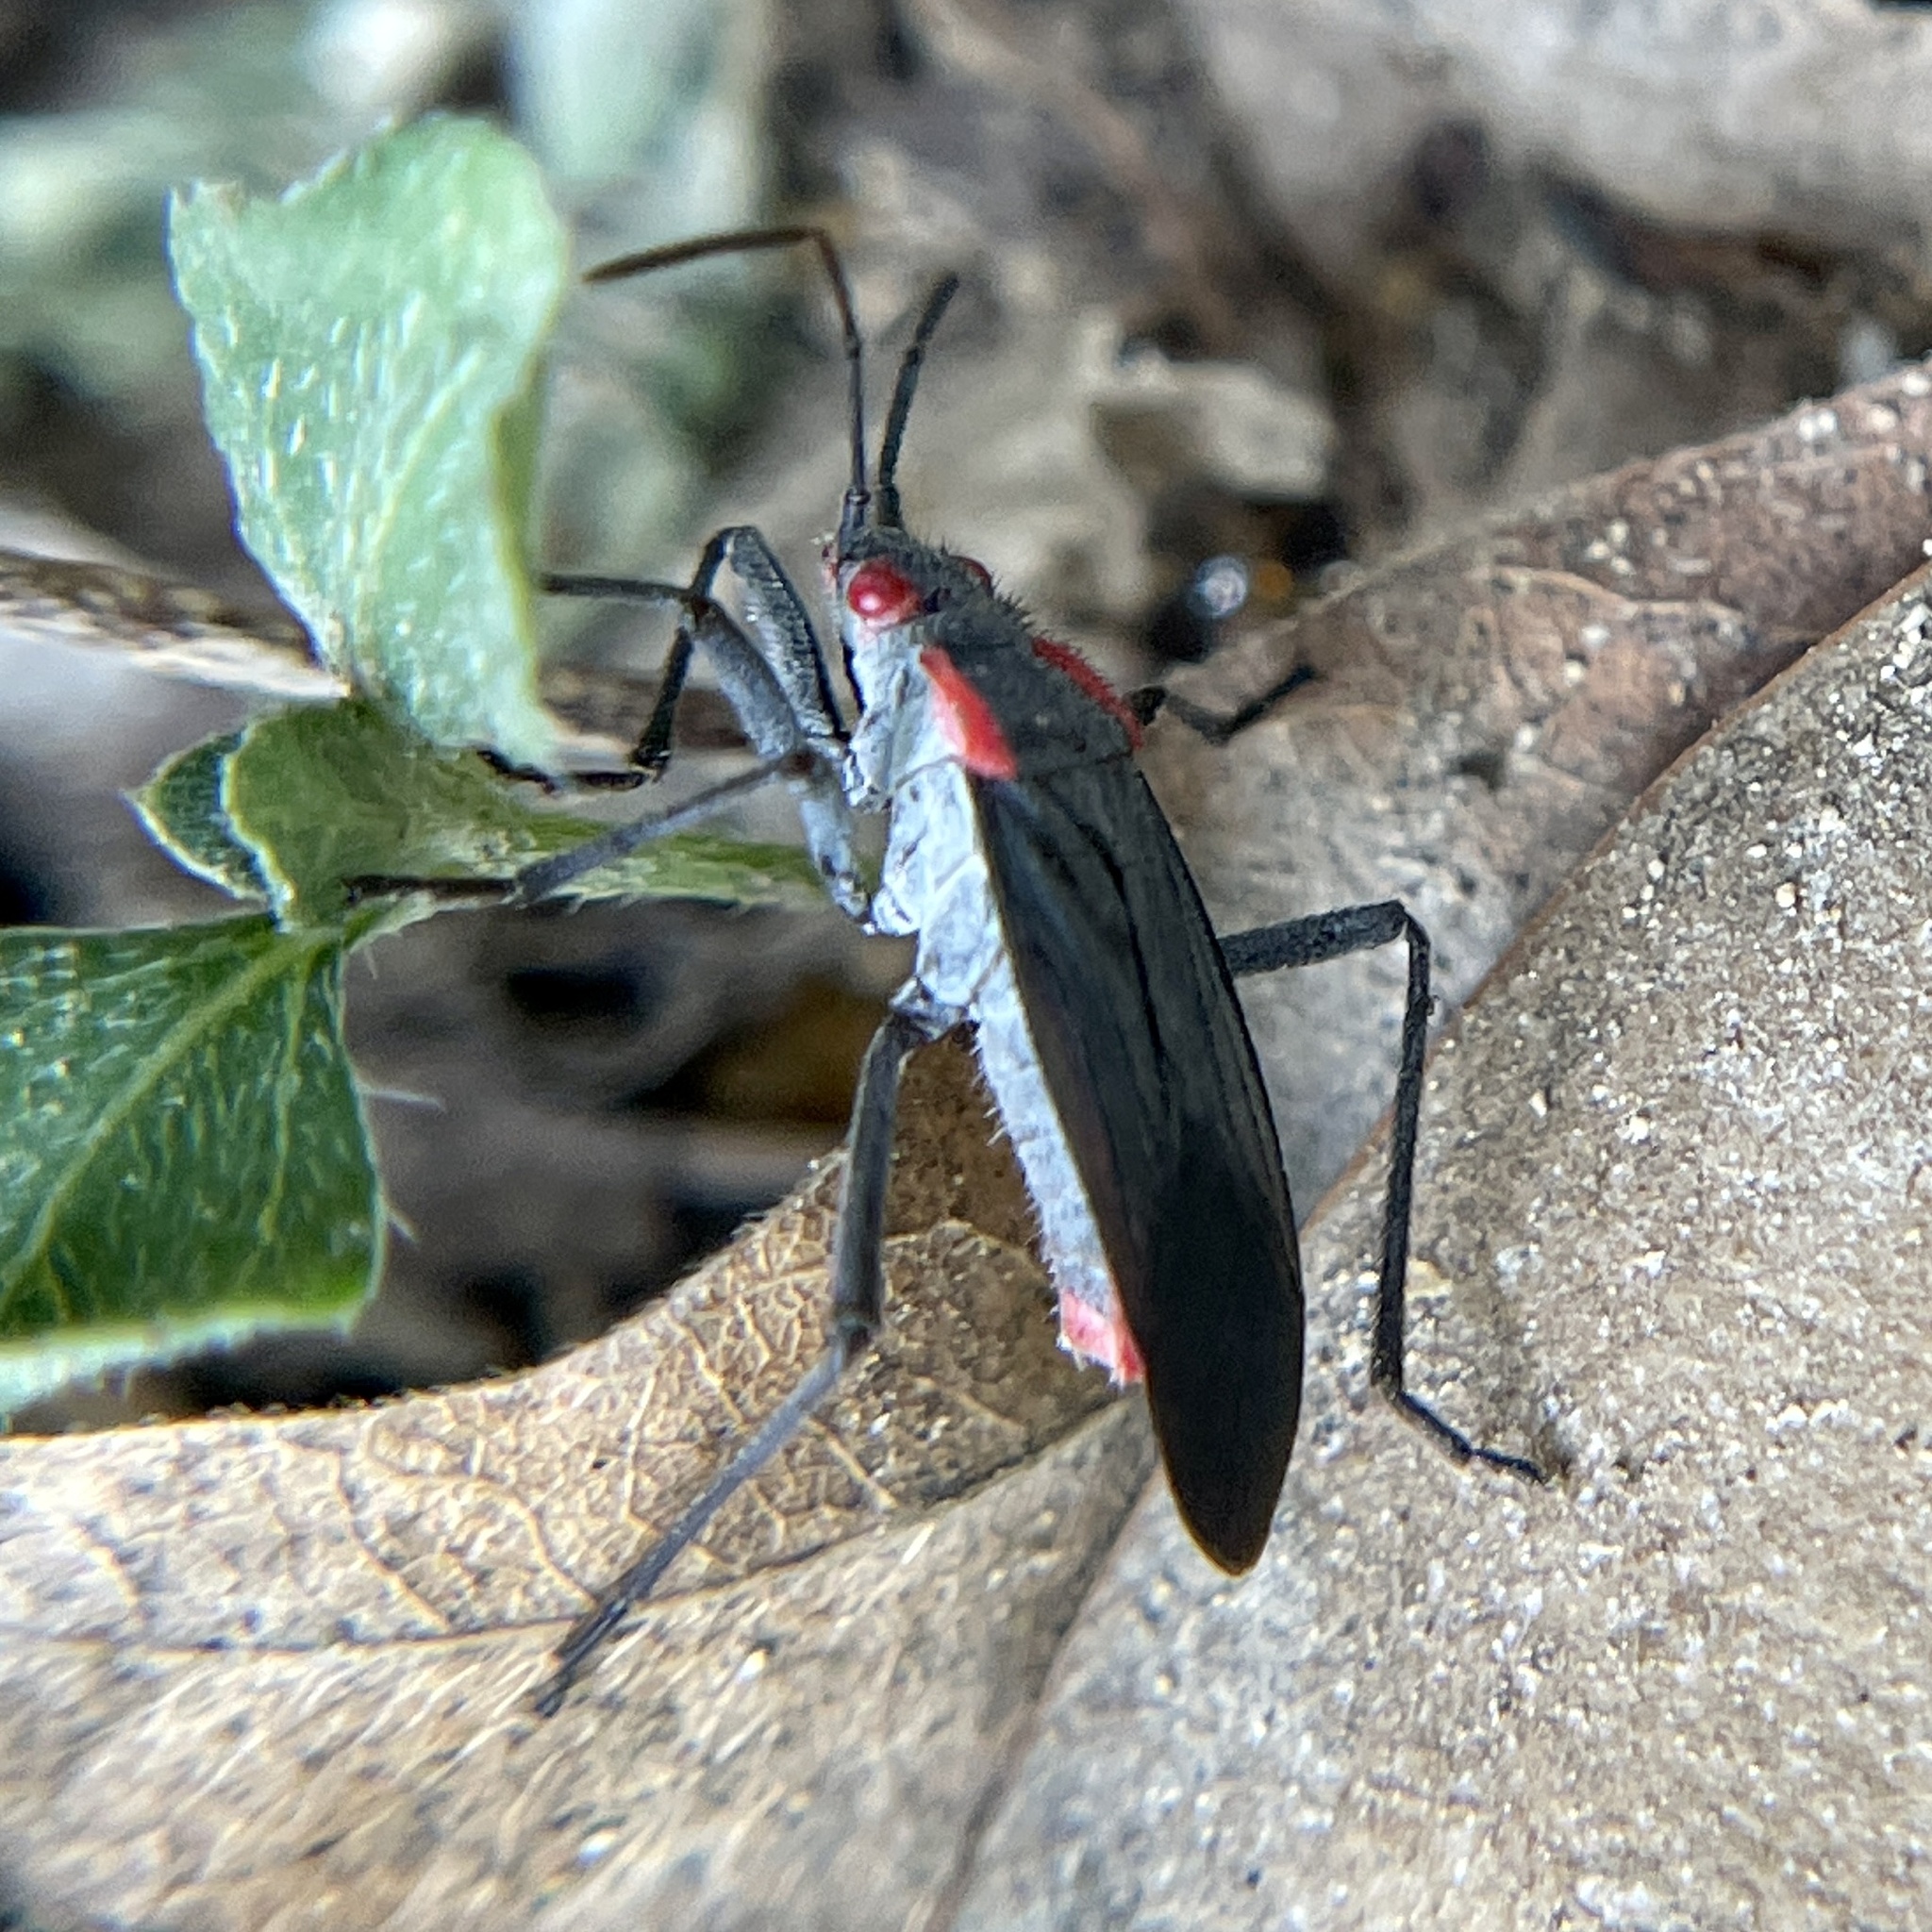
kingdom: Animalia
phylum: Arthropoda
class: Insecta
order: Hemiptera
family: Rhopalidae
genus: Jadera
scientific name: Jadera haematoloma
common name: Red-shouldered bug
